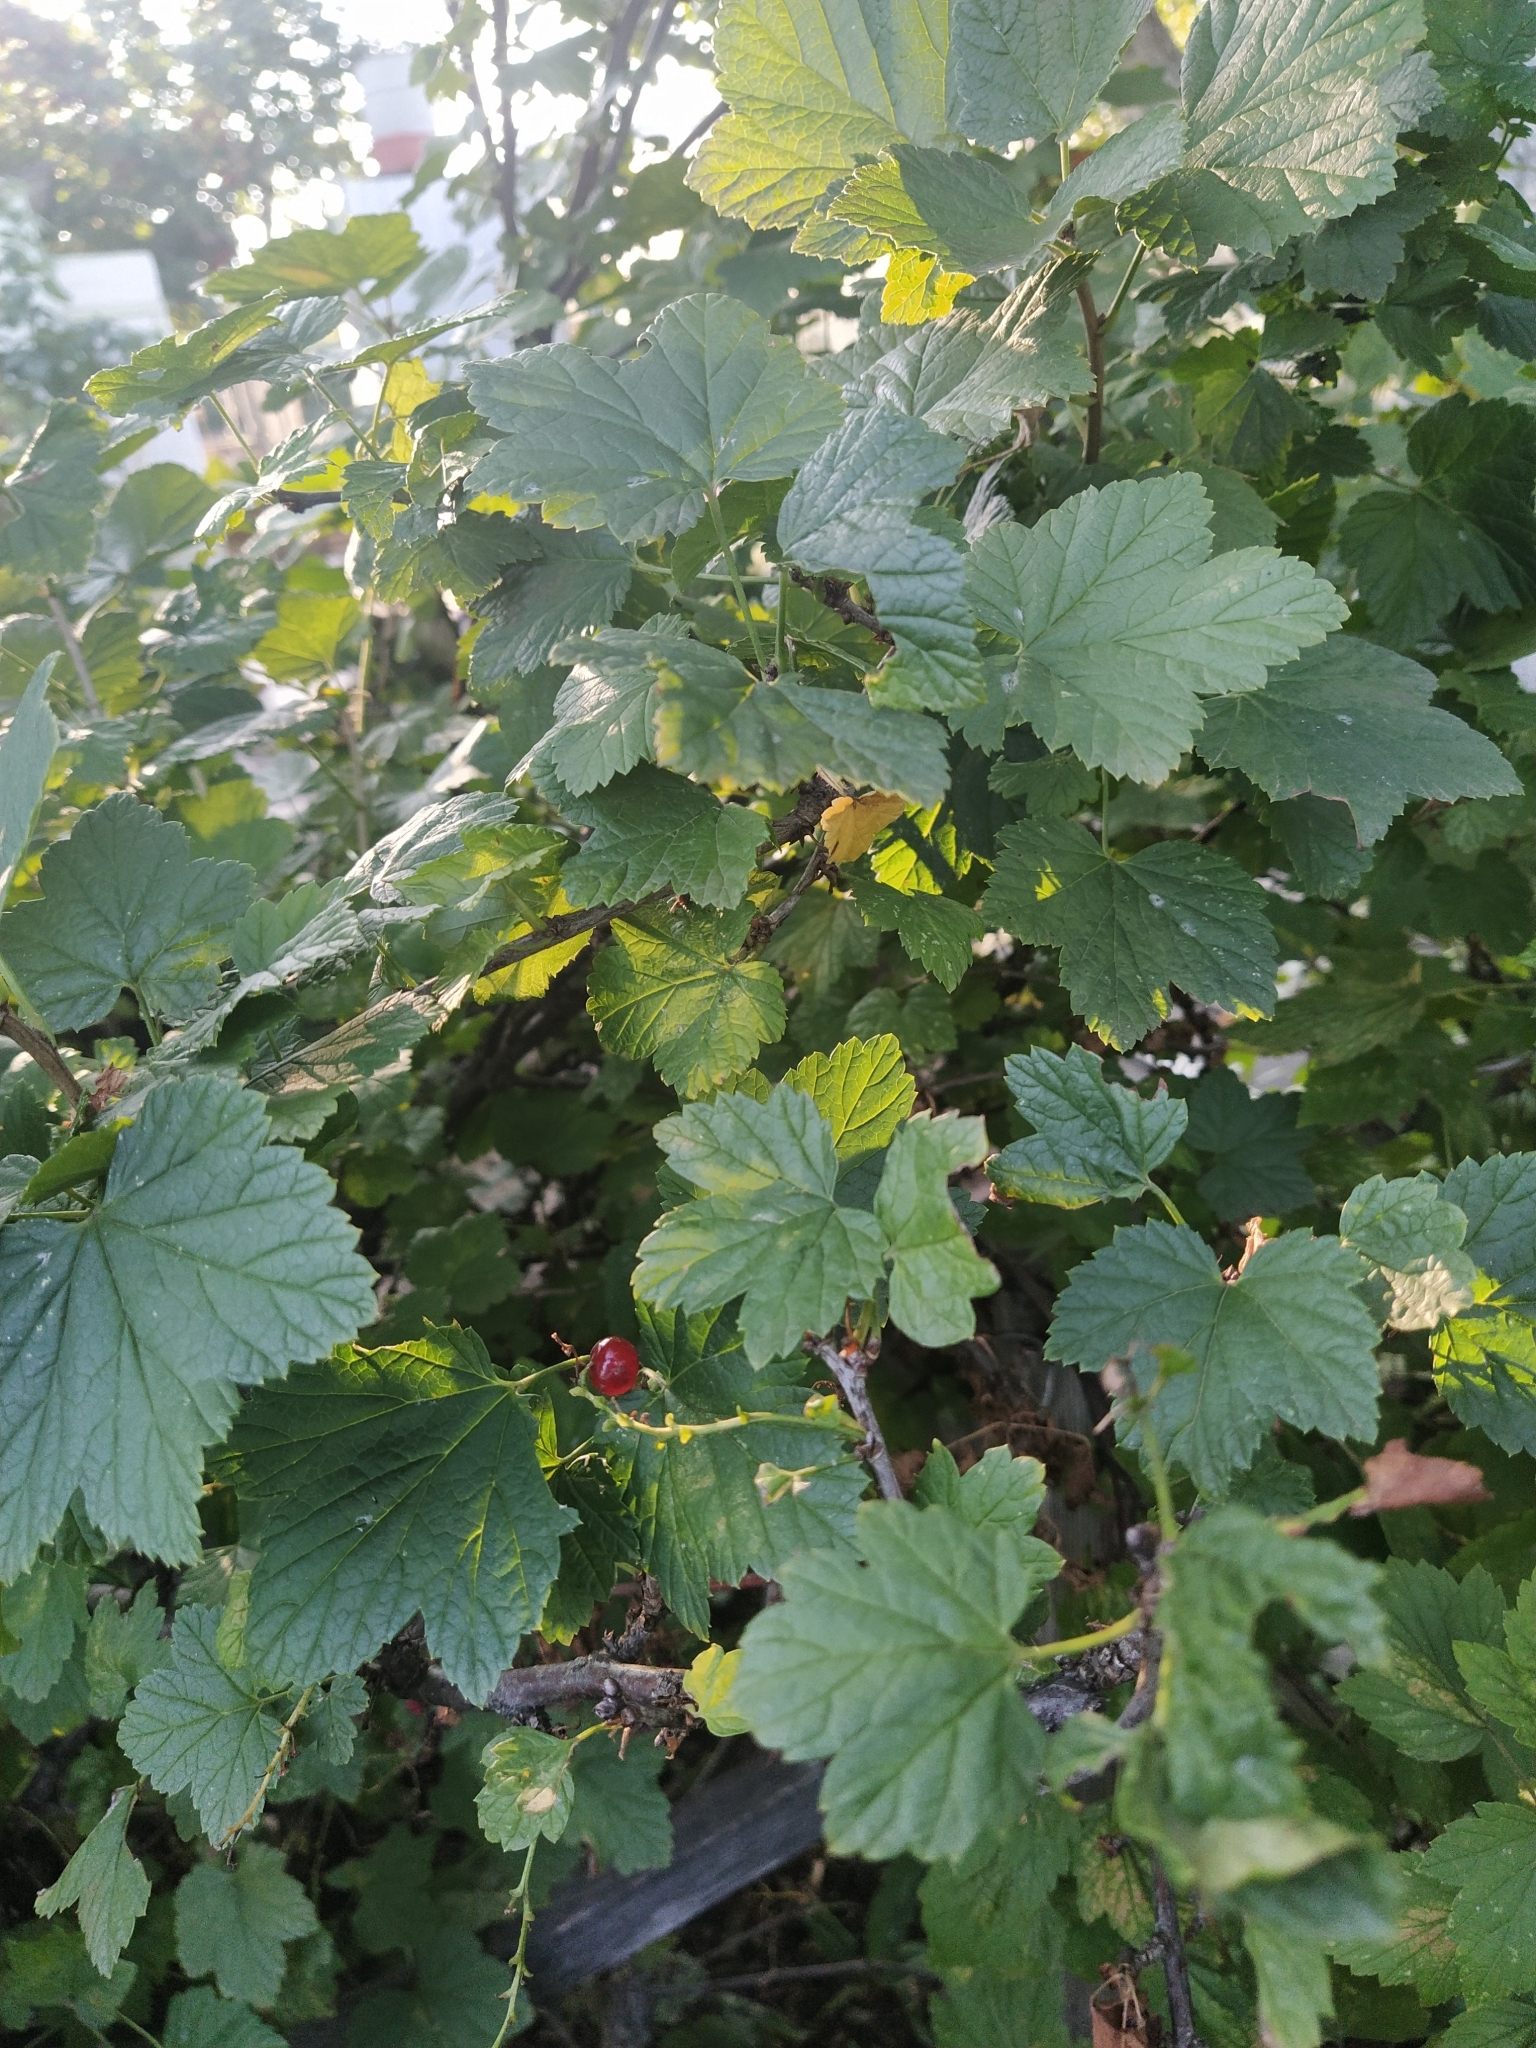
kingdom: Plantae
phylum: Tracheophyta
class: Magnoliopsida
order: Saxifragales
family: Grossulariaceae
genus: Ribes
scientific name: Ribes rubrum
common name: Red currant
